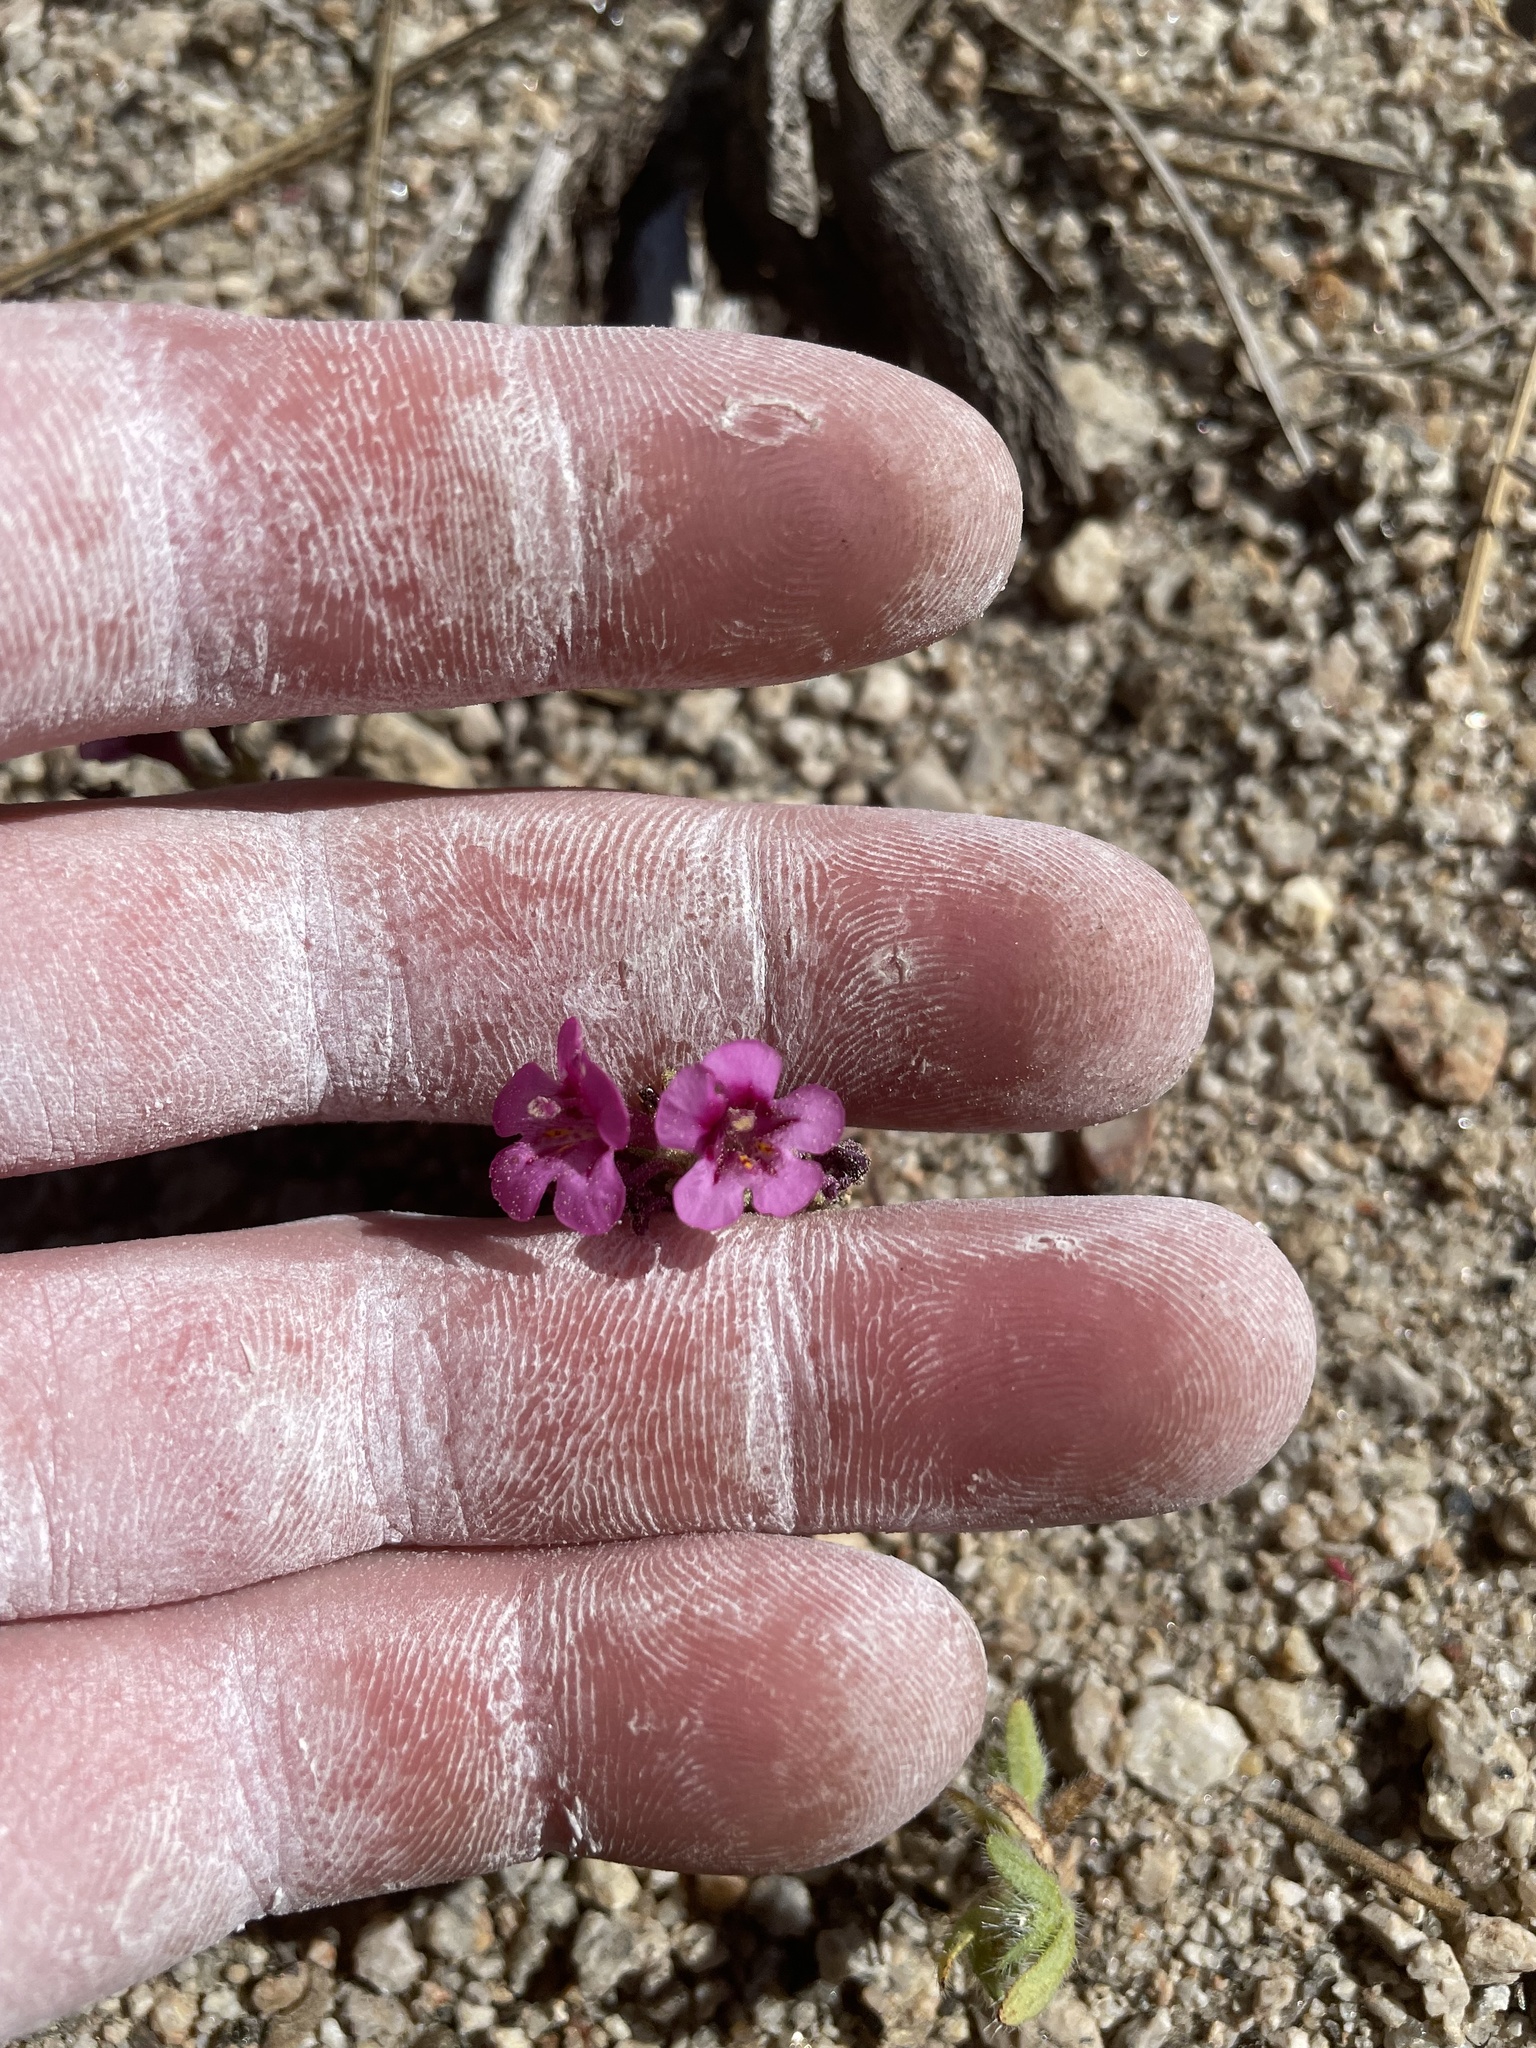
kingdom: Plantae
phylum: Tracheophyta
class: Magnoliopsida
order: Lamiales
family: Phrymaceae
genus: Diplacus
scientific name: Diplacus mephiticus
